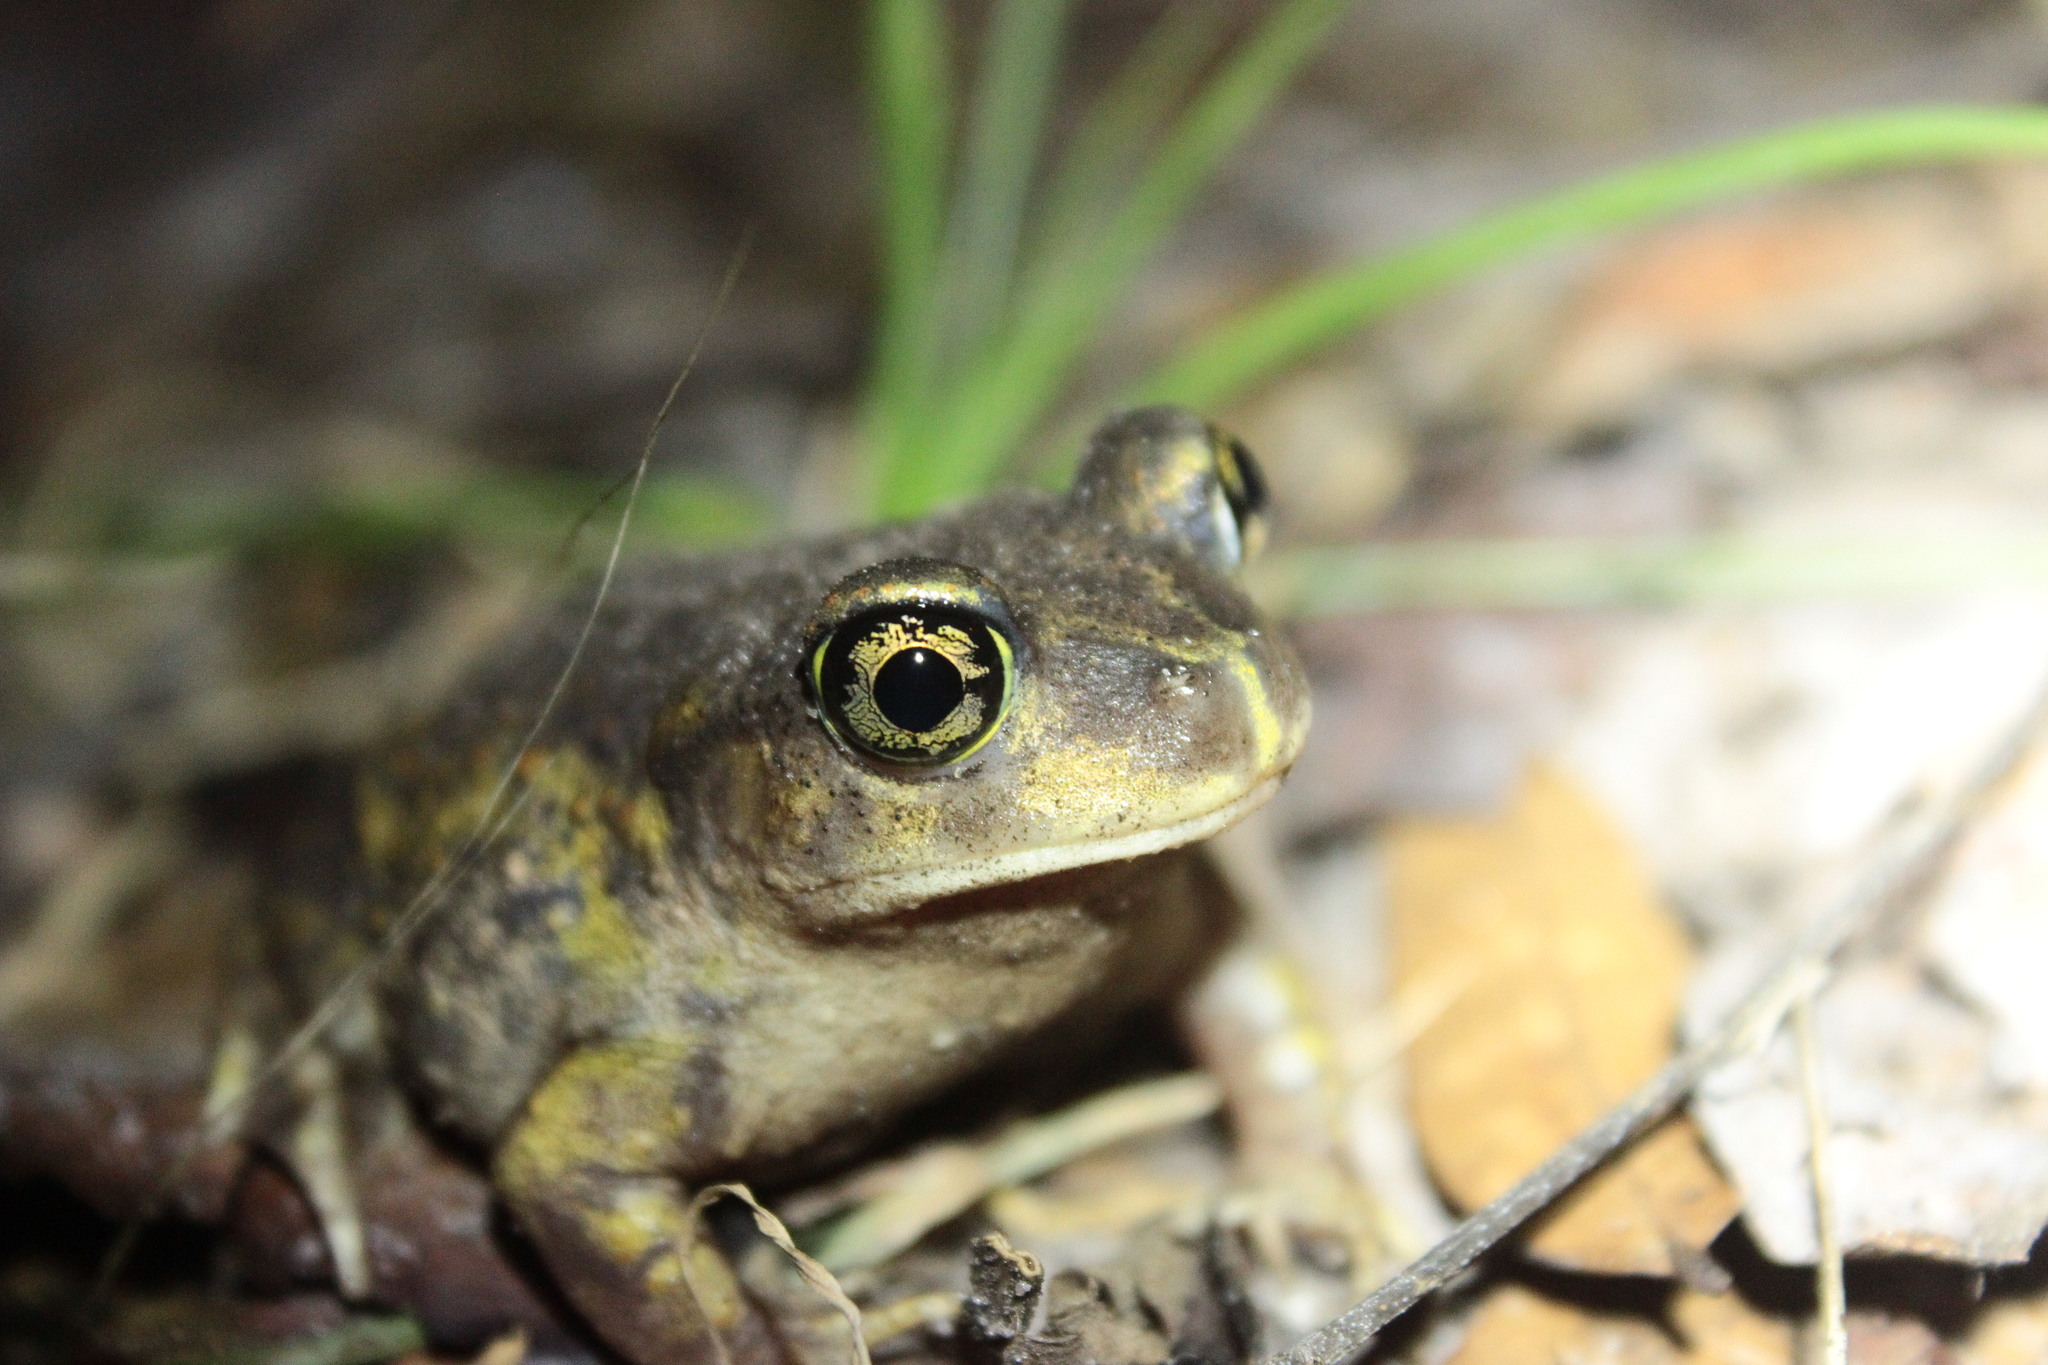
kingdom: Animalia
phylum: Chordata
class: Amphibia
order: Anura
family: Scaphiopodidae
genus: Scaphiopus
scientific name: Scaphiopus holbrookii
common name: Eastern spadefoot toad
